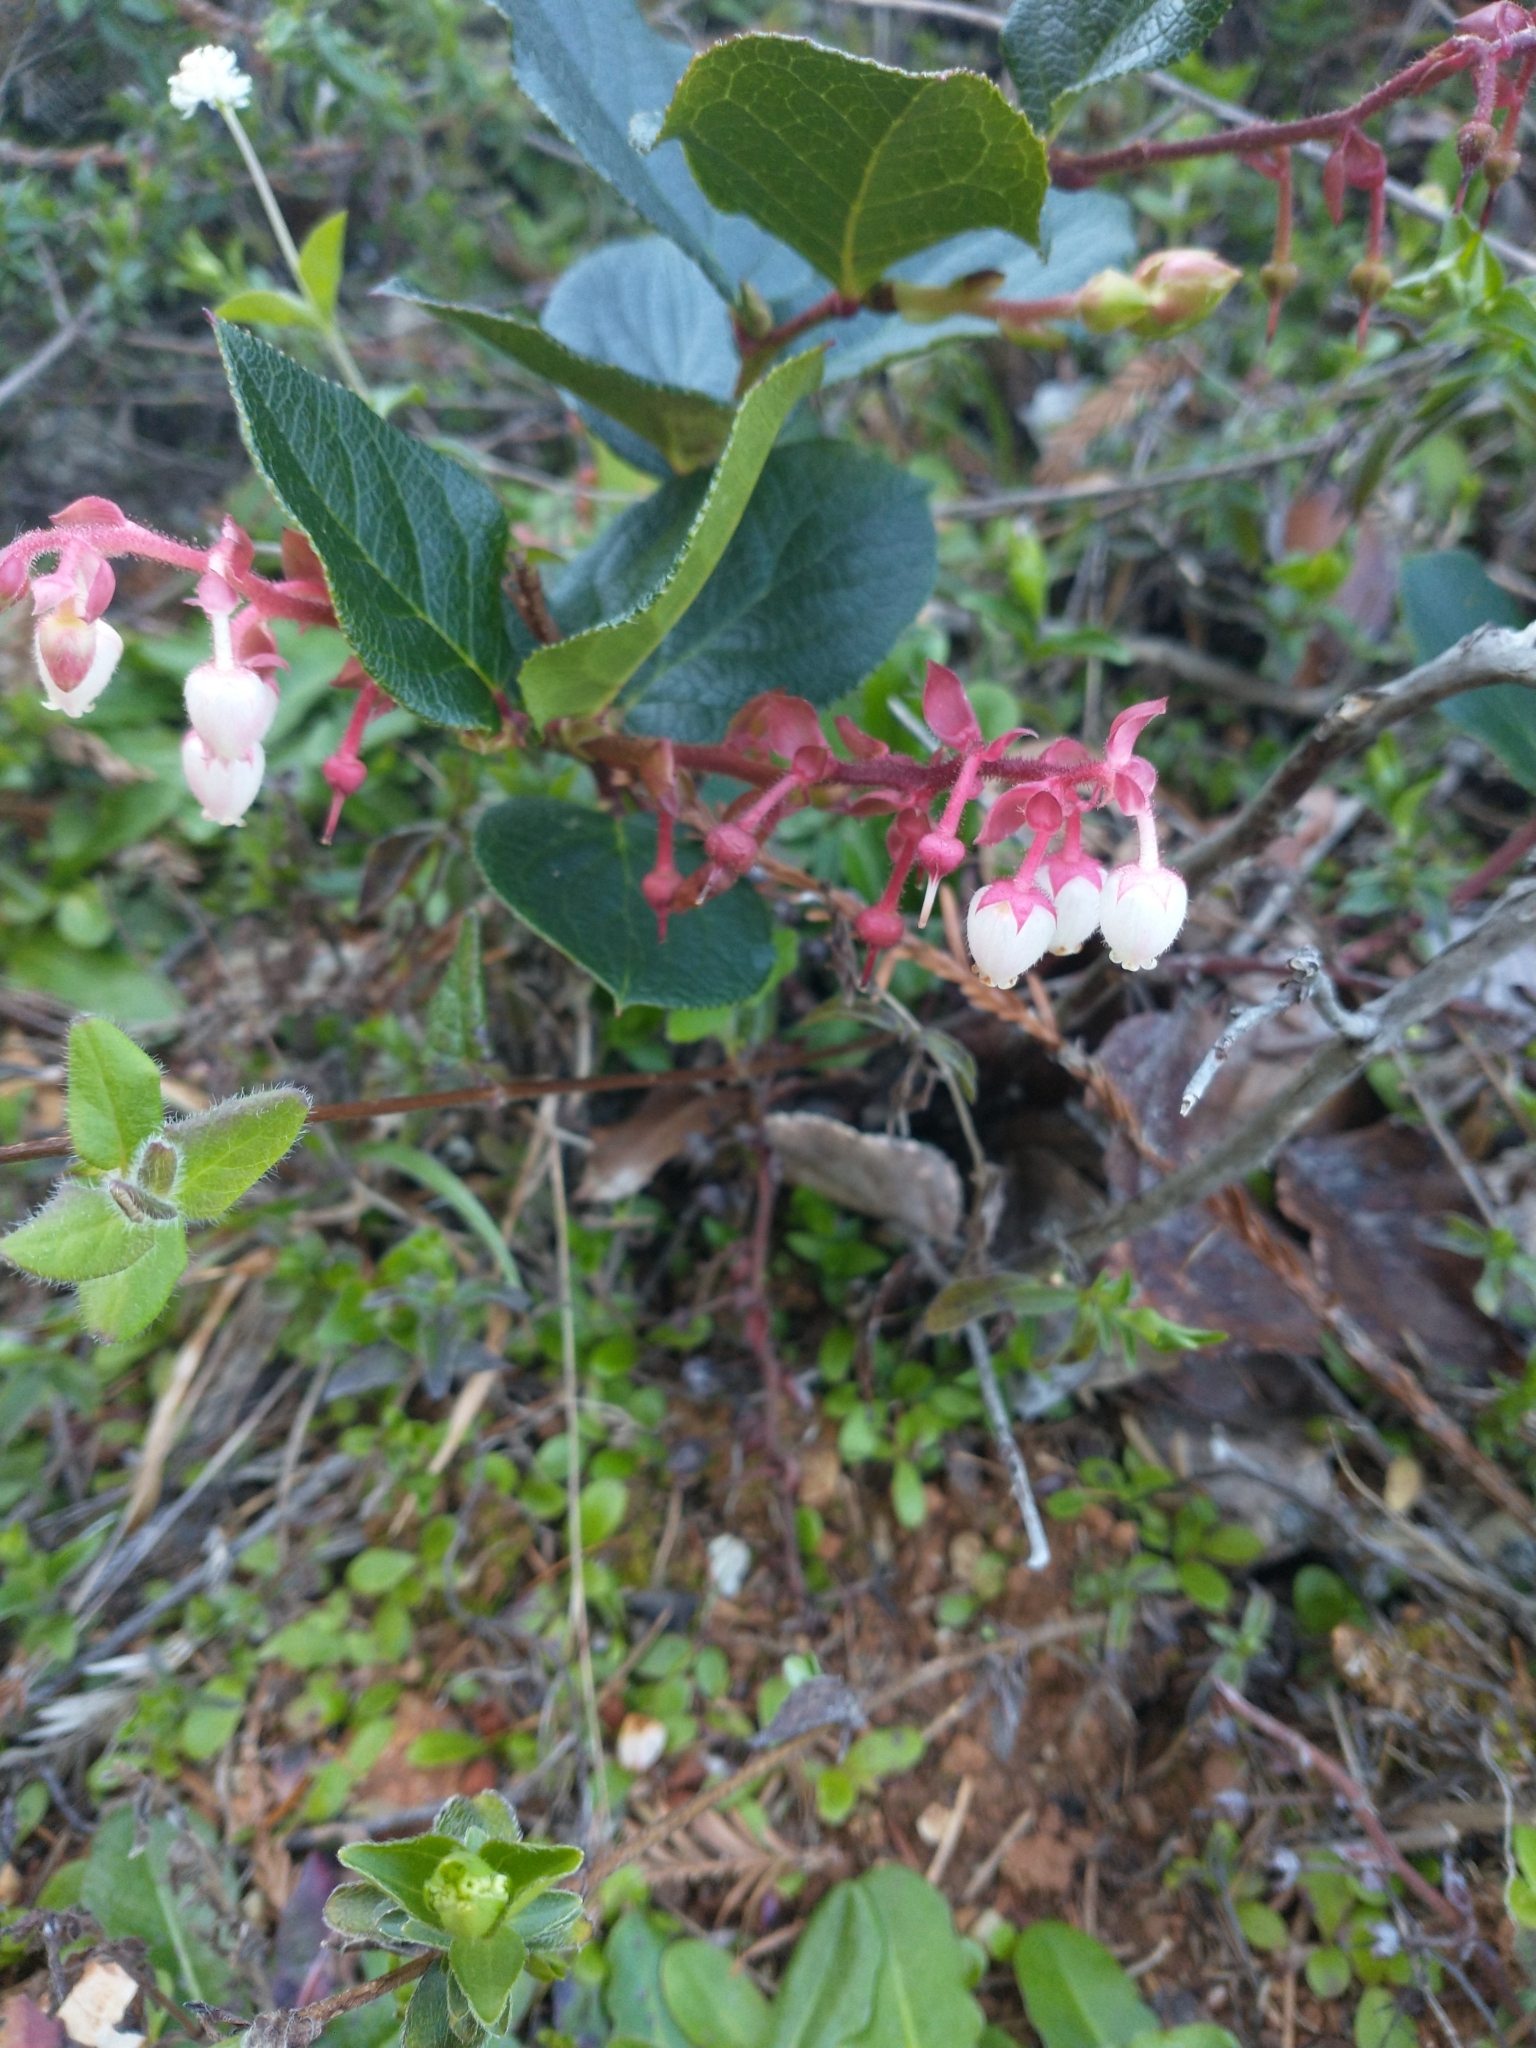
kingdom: Plantae
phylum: Tracheophyta
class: Magnoliopsida
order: Ericales
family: Ericaceae
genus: Gaultheria
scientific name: Gaultheria shallon
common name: Shallon
